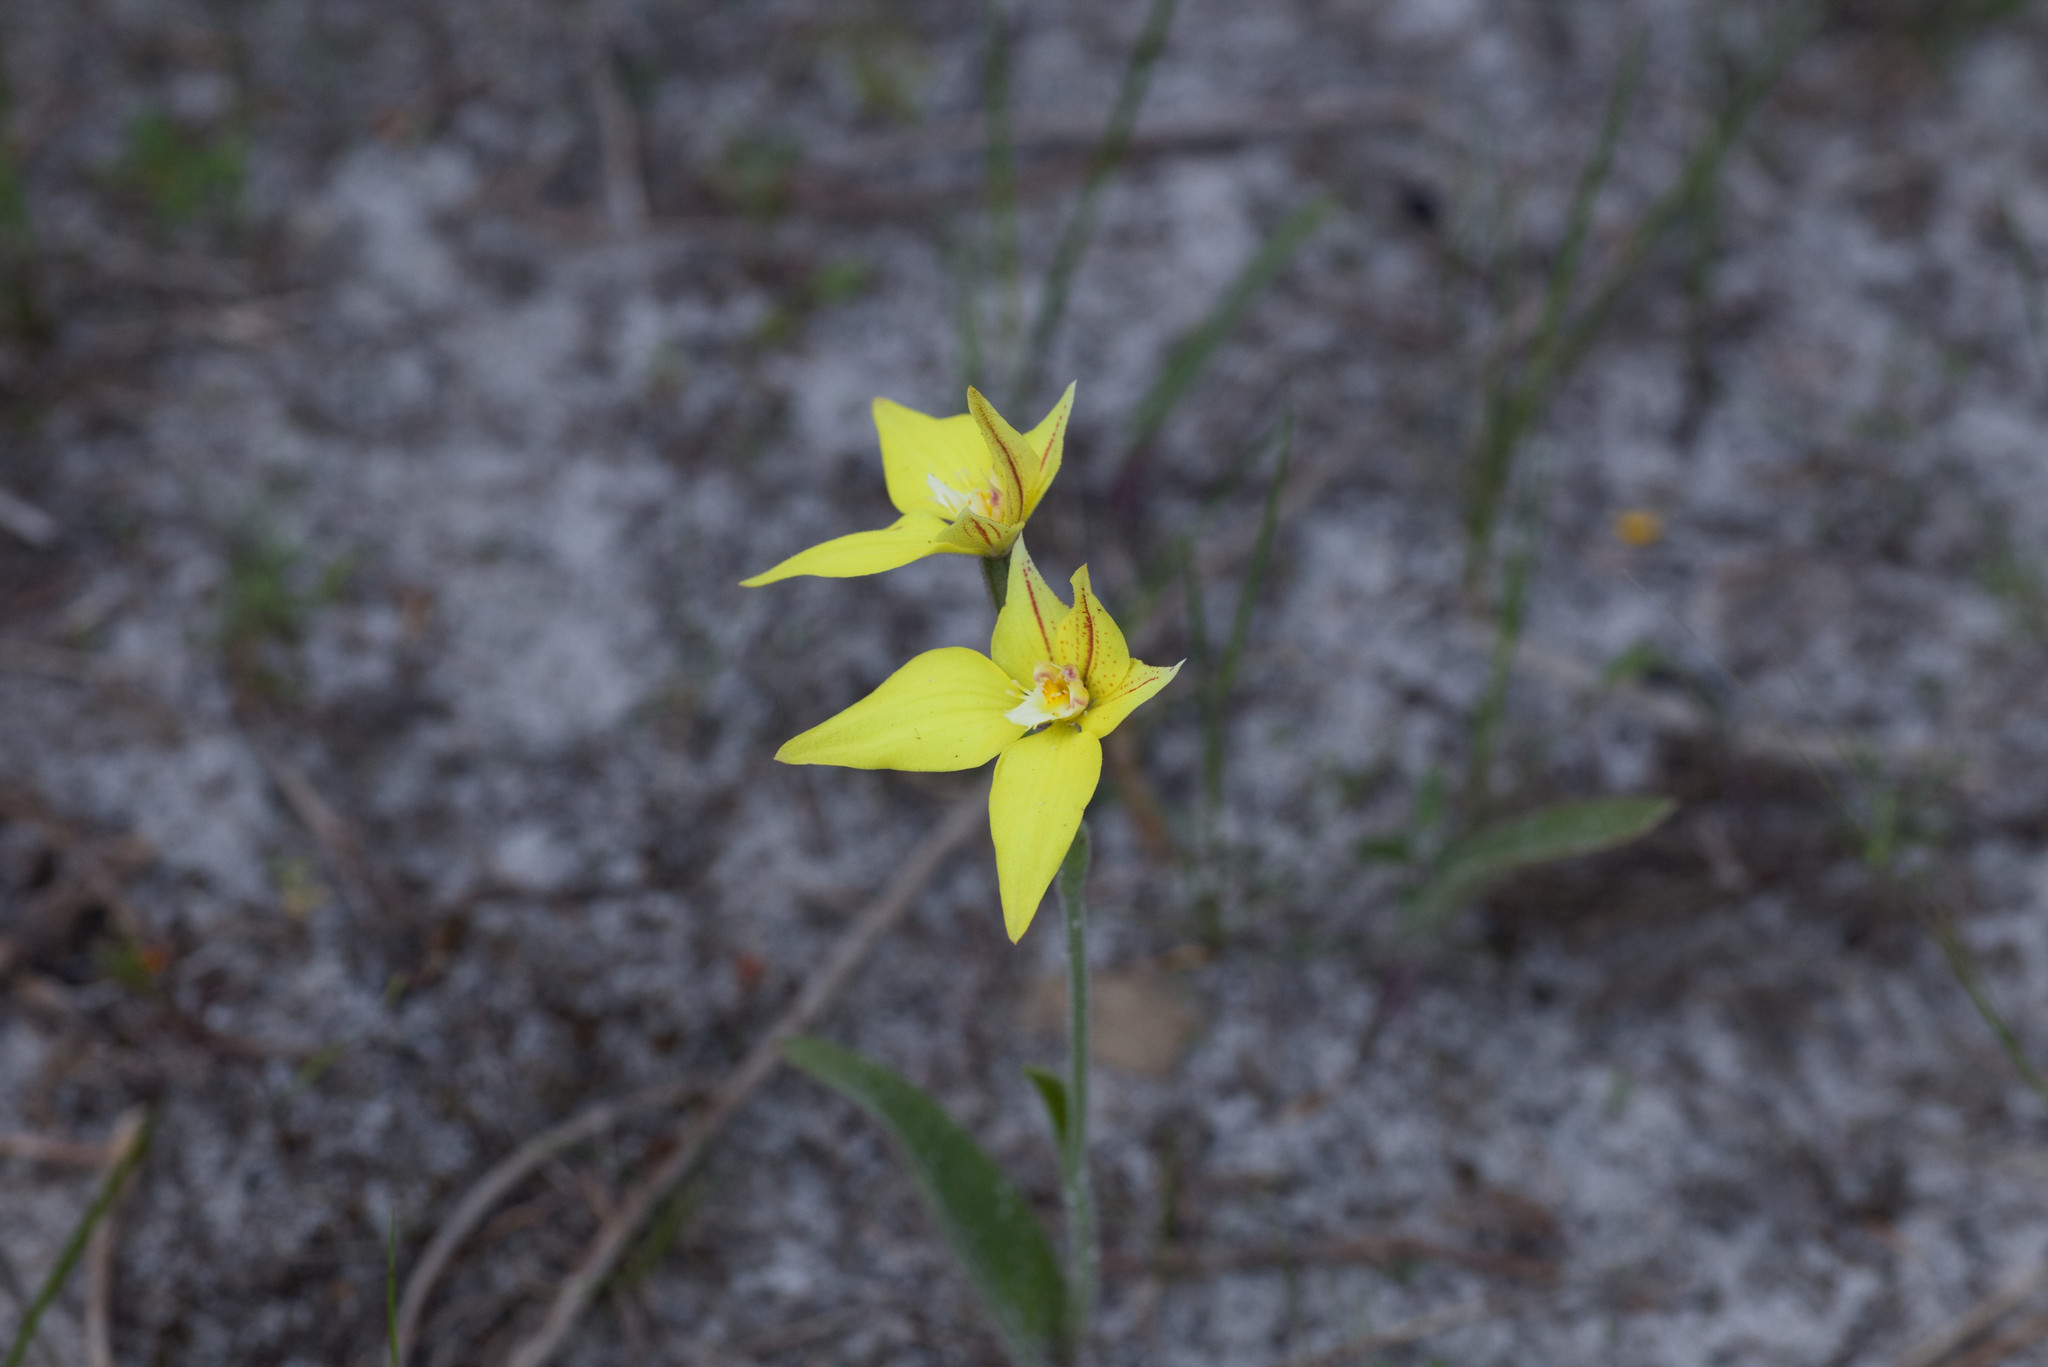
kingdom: Plantae
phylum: Tracheophyta
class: Liliopsida
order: Asparagales
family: Orchidaceae
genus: Caladenia
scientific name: Caladenia flava
